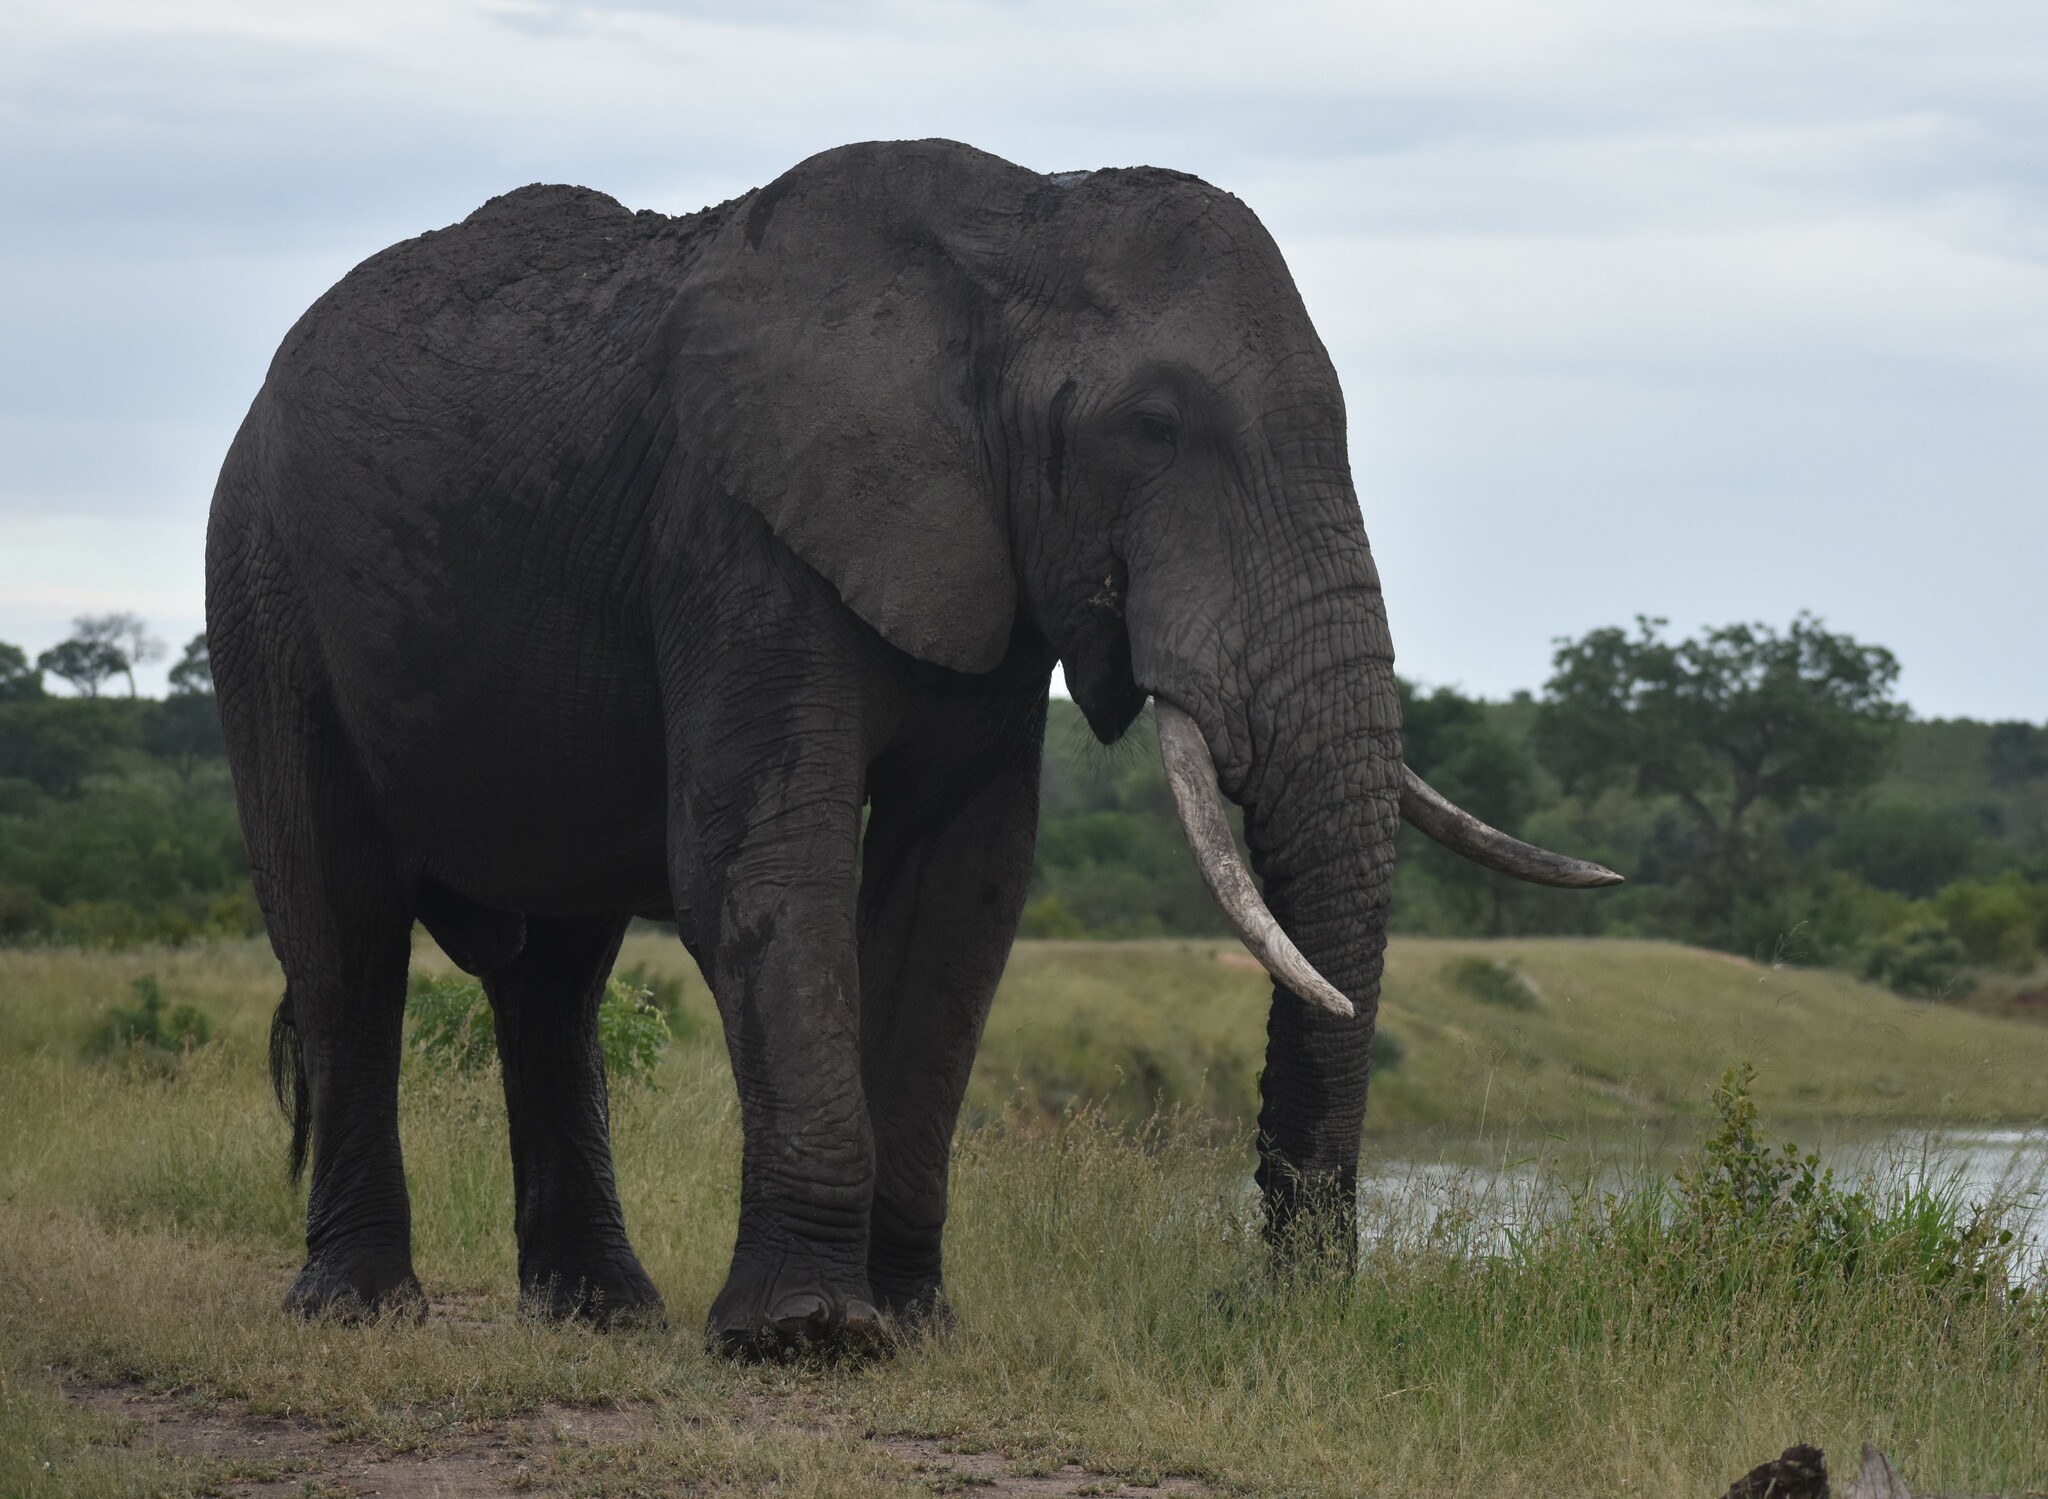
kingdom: Animalia
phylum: Chordata
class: Mammalia
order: Proboscidea
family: Elephantidae
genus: Loxodonta
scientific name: Loxodonta africana
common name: African elephant
